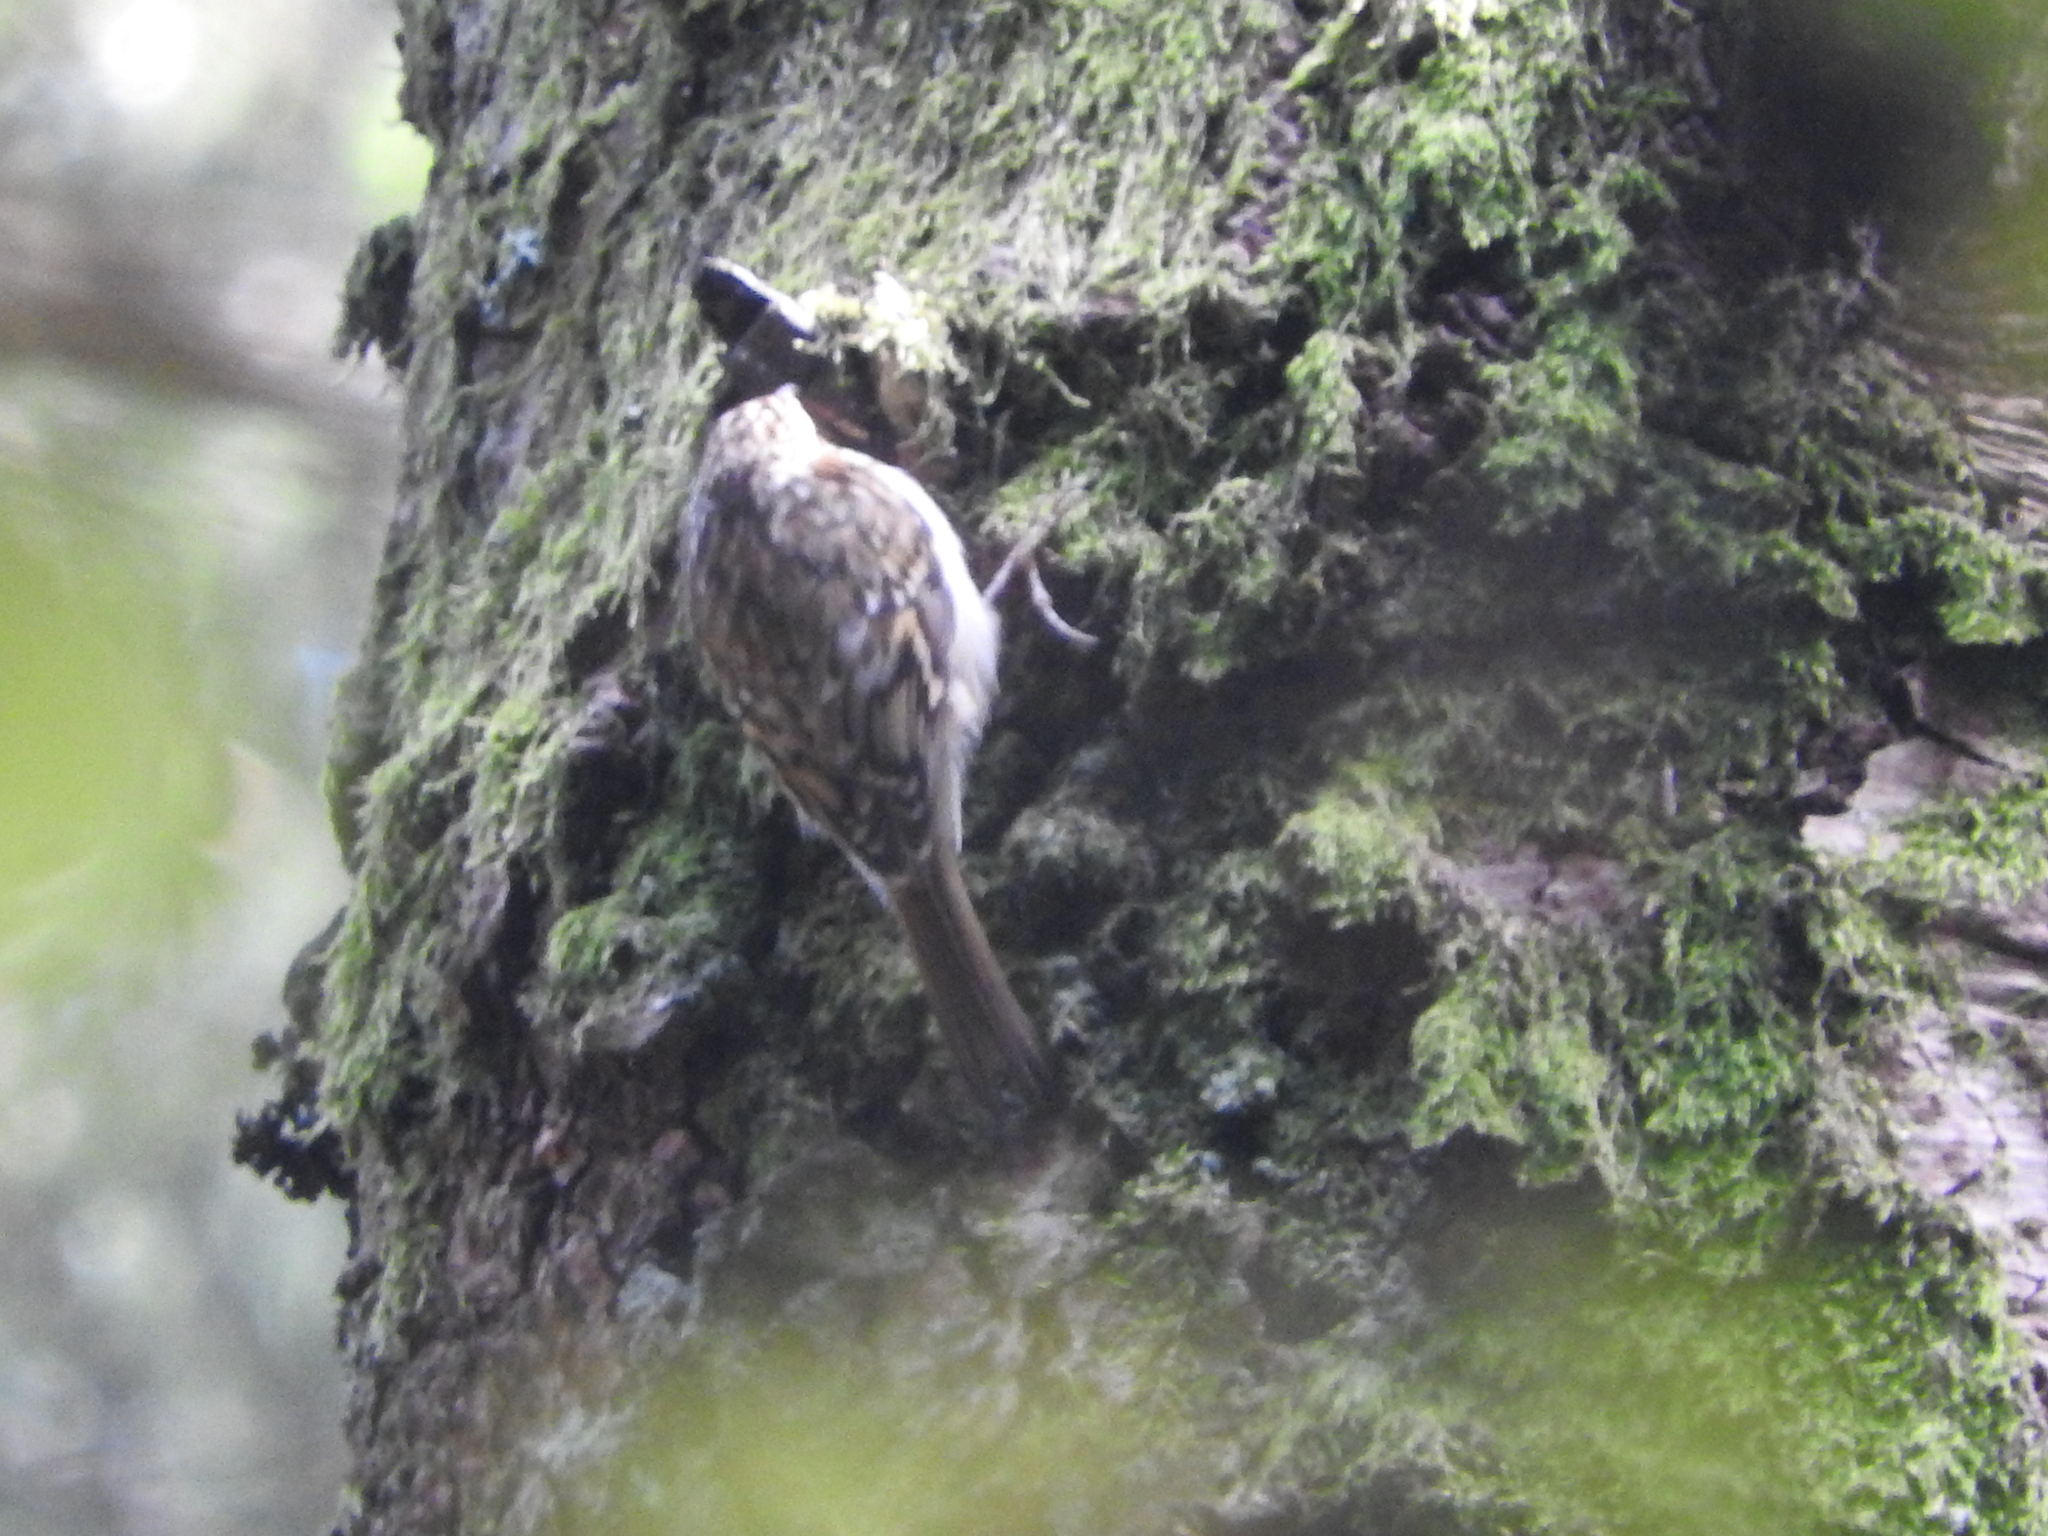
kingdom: Animalia
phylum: Chordata
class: Aves
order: Passeriformes
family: Certhiidae
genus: Certhia
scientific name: Certhia familiaris
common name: Eurasian treecreeper
